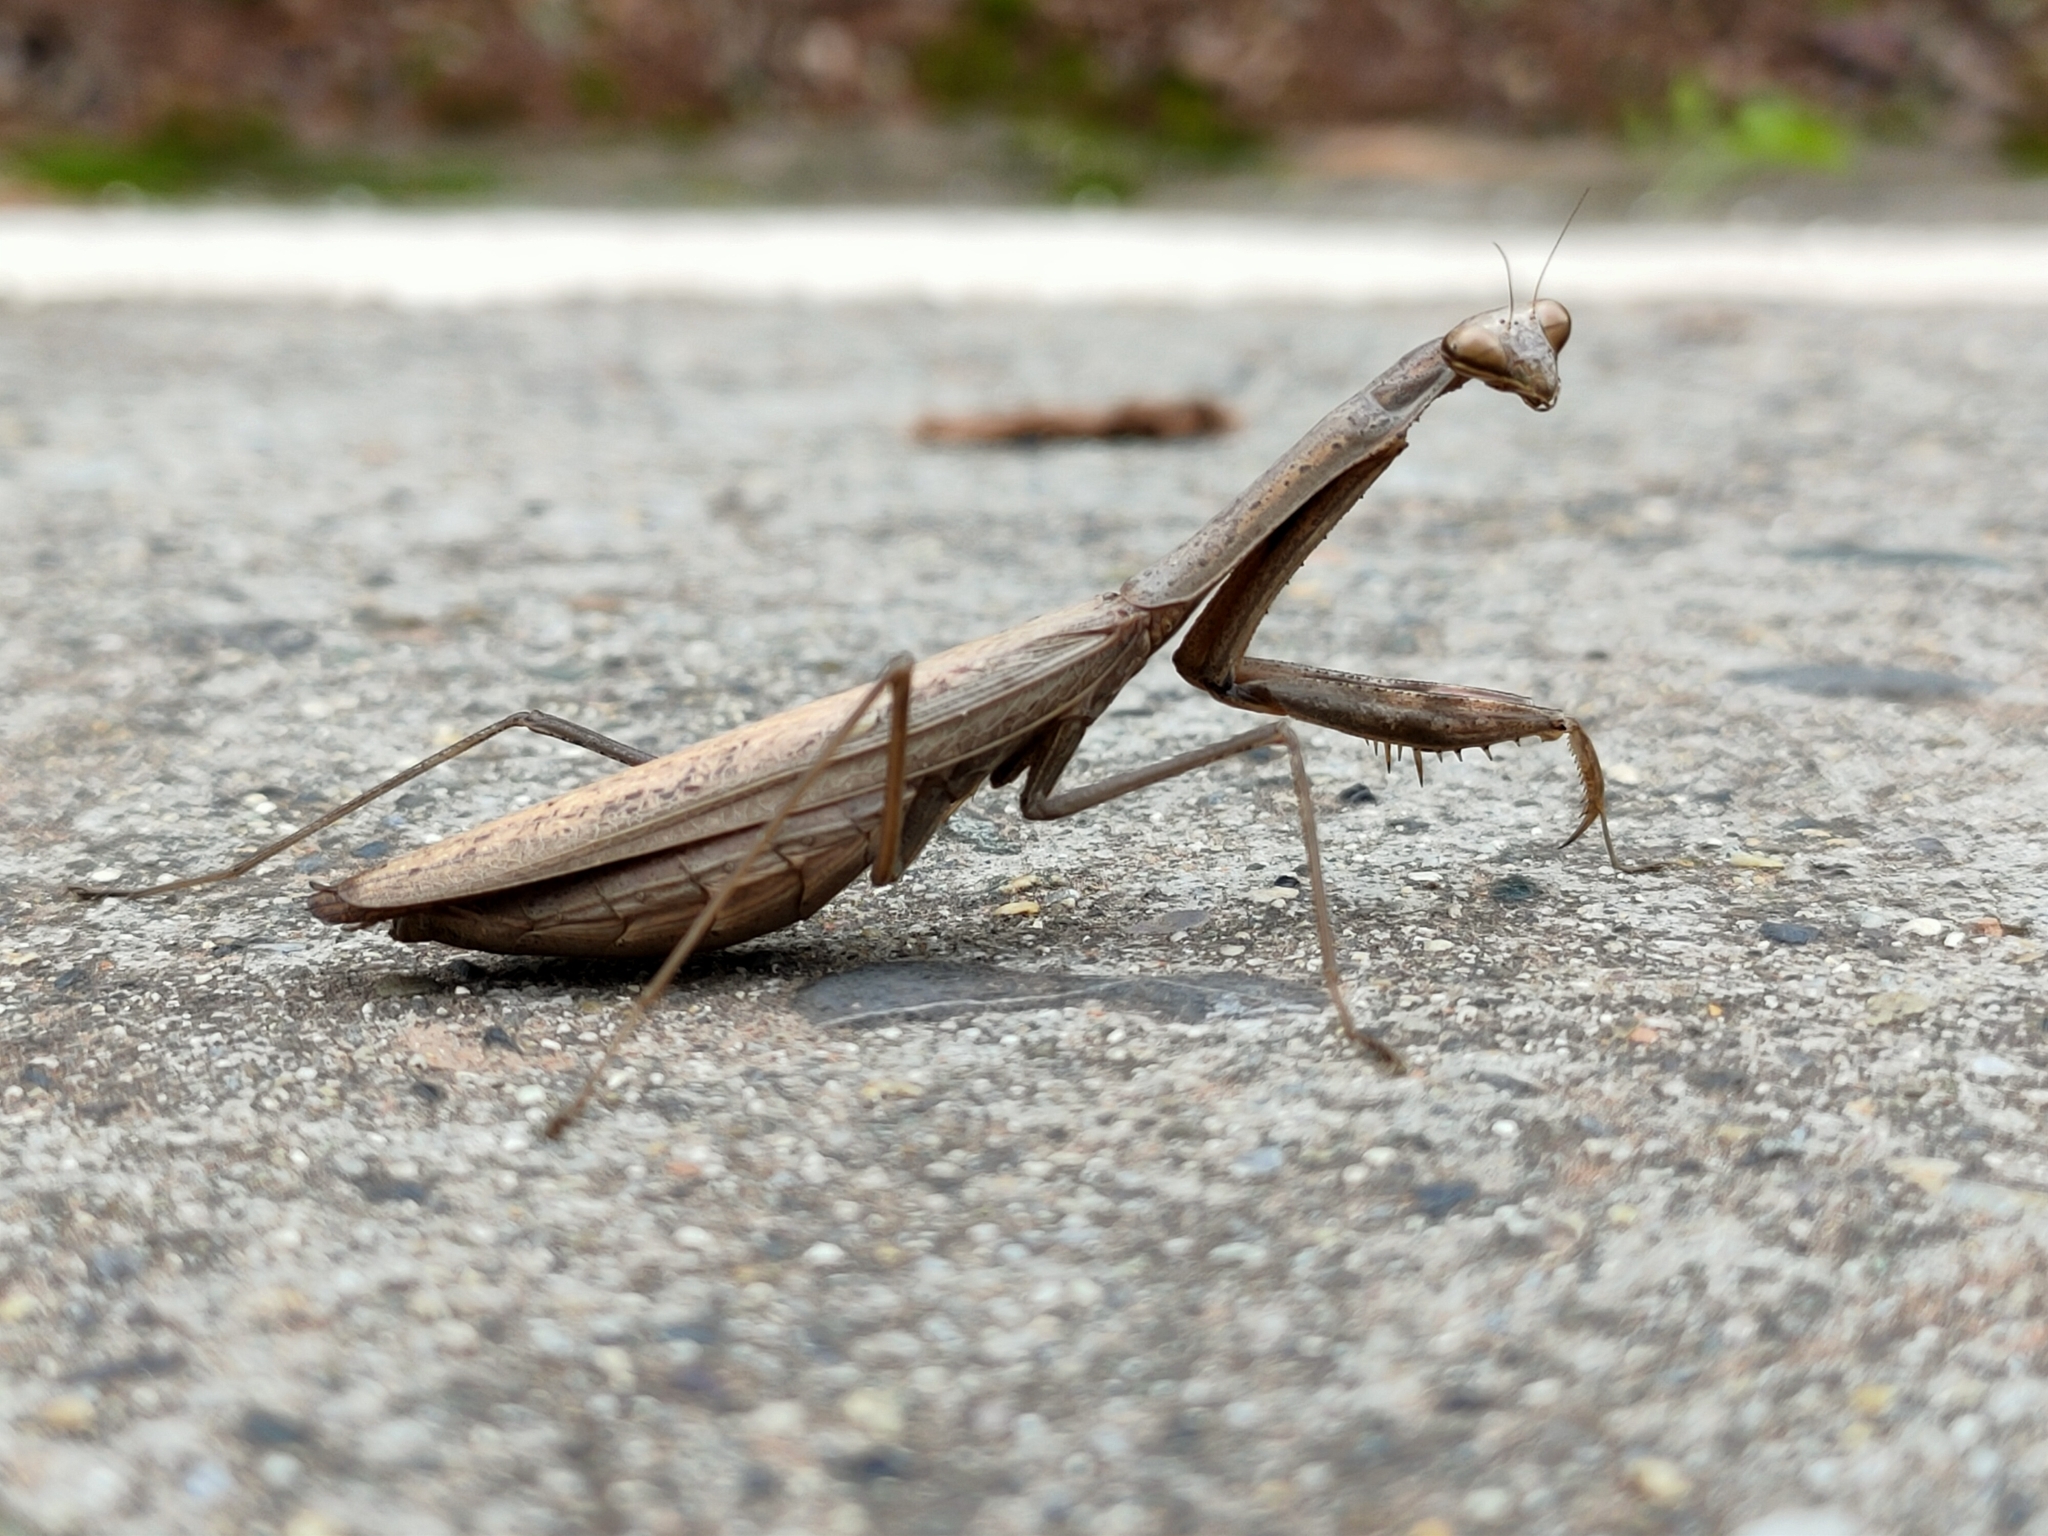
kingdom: Animalia
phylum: Arthropoda
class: Insecta
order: Mantodea
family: Mantidae
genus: Statilia
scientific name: Statilia maculata
